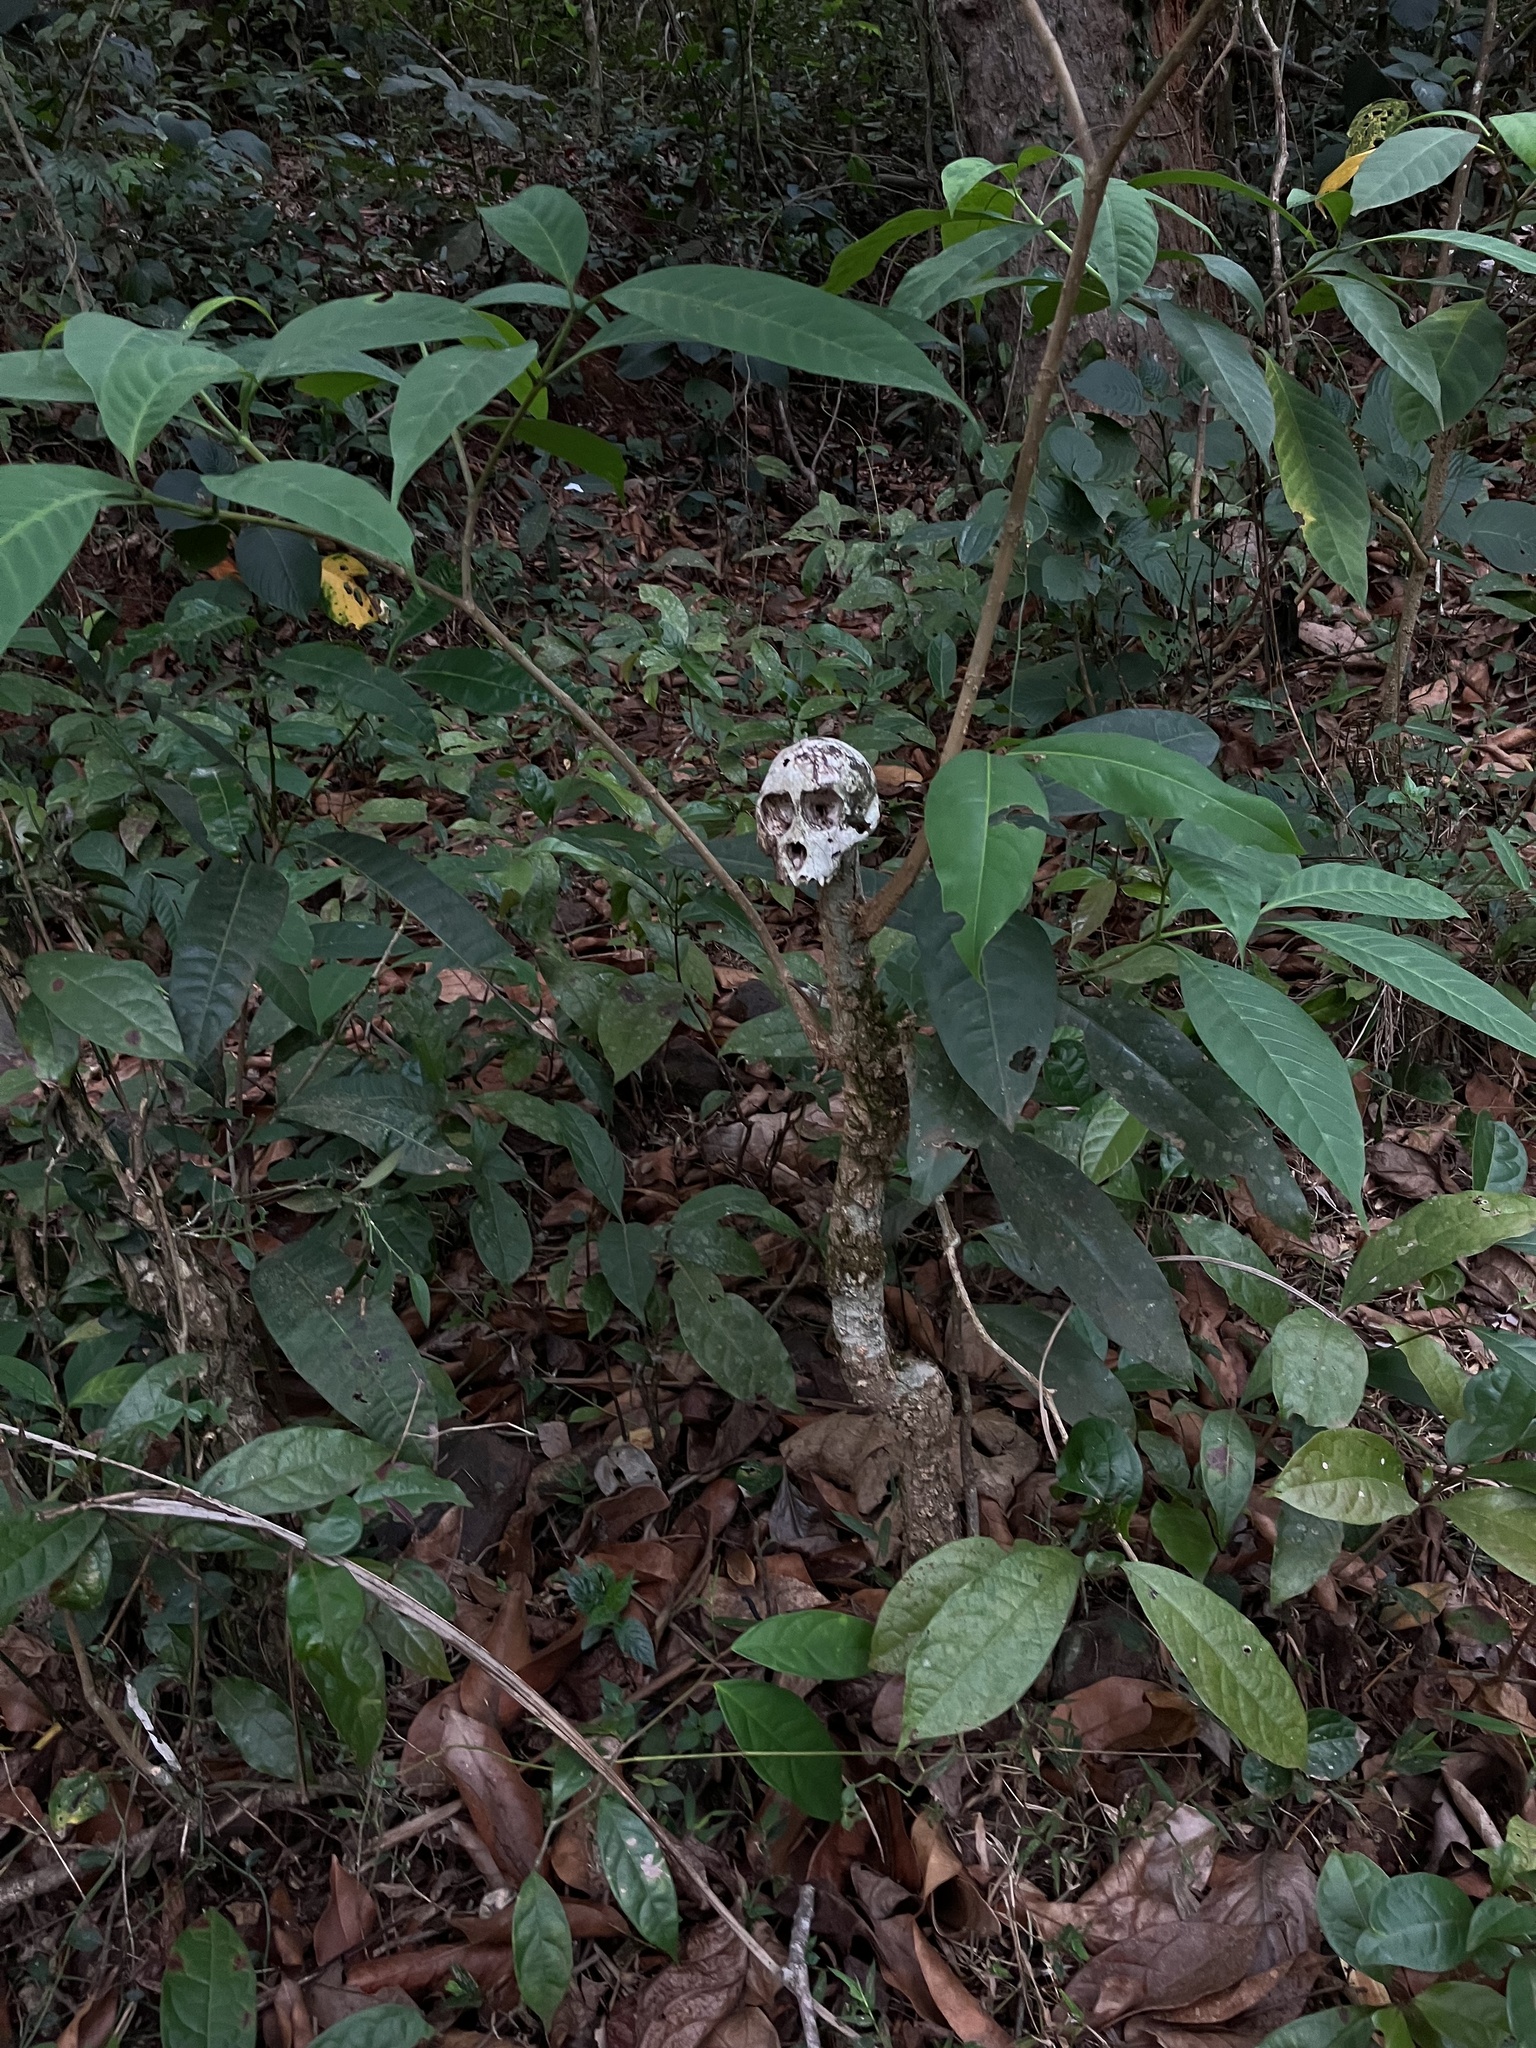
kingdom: Animalia
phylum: Chordata
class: Mammalia
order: Primates
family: Cercopithecidae
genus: Macaca
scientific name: Macaca radiata
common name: Bonnet macaque
